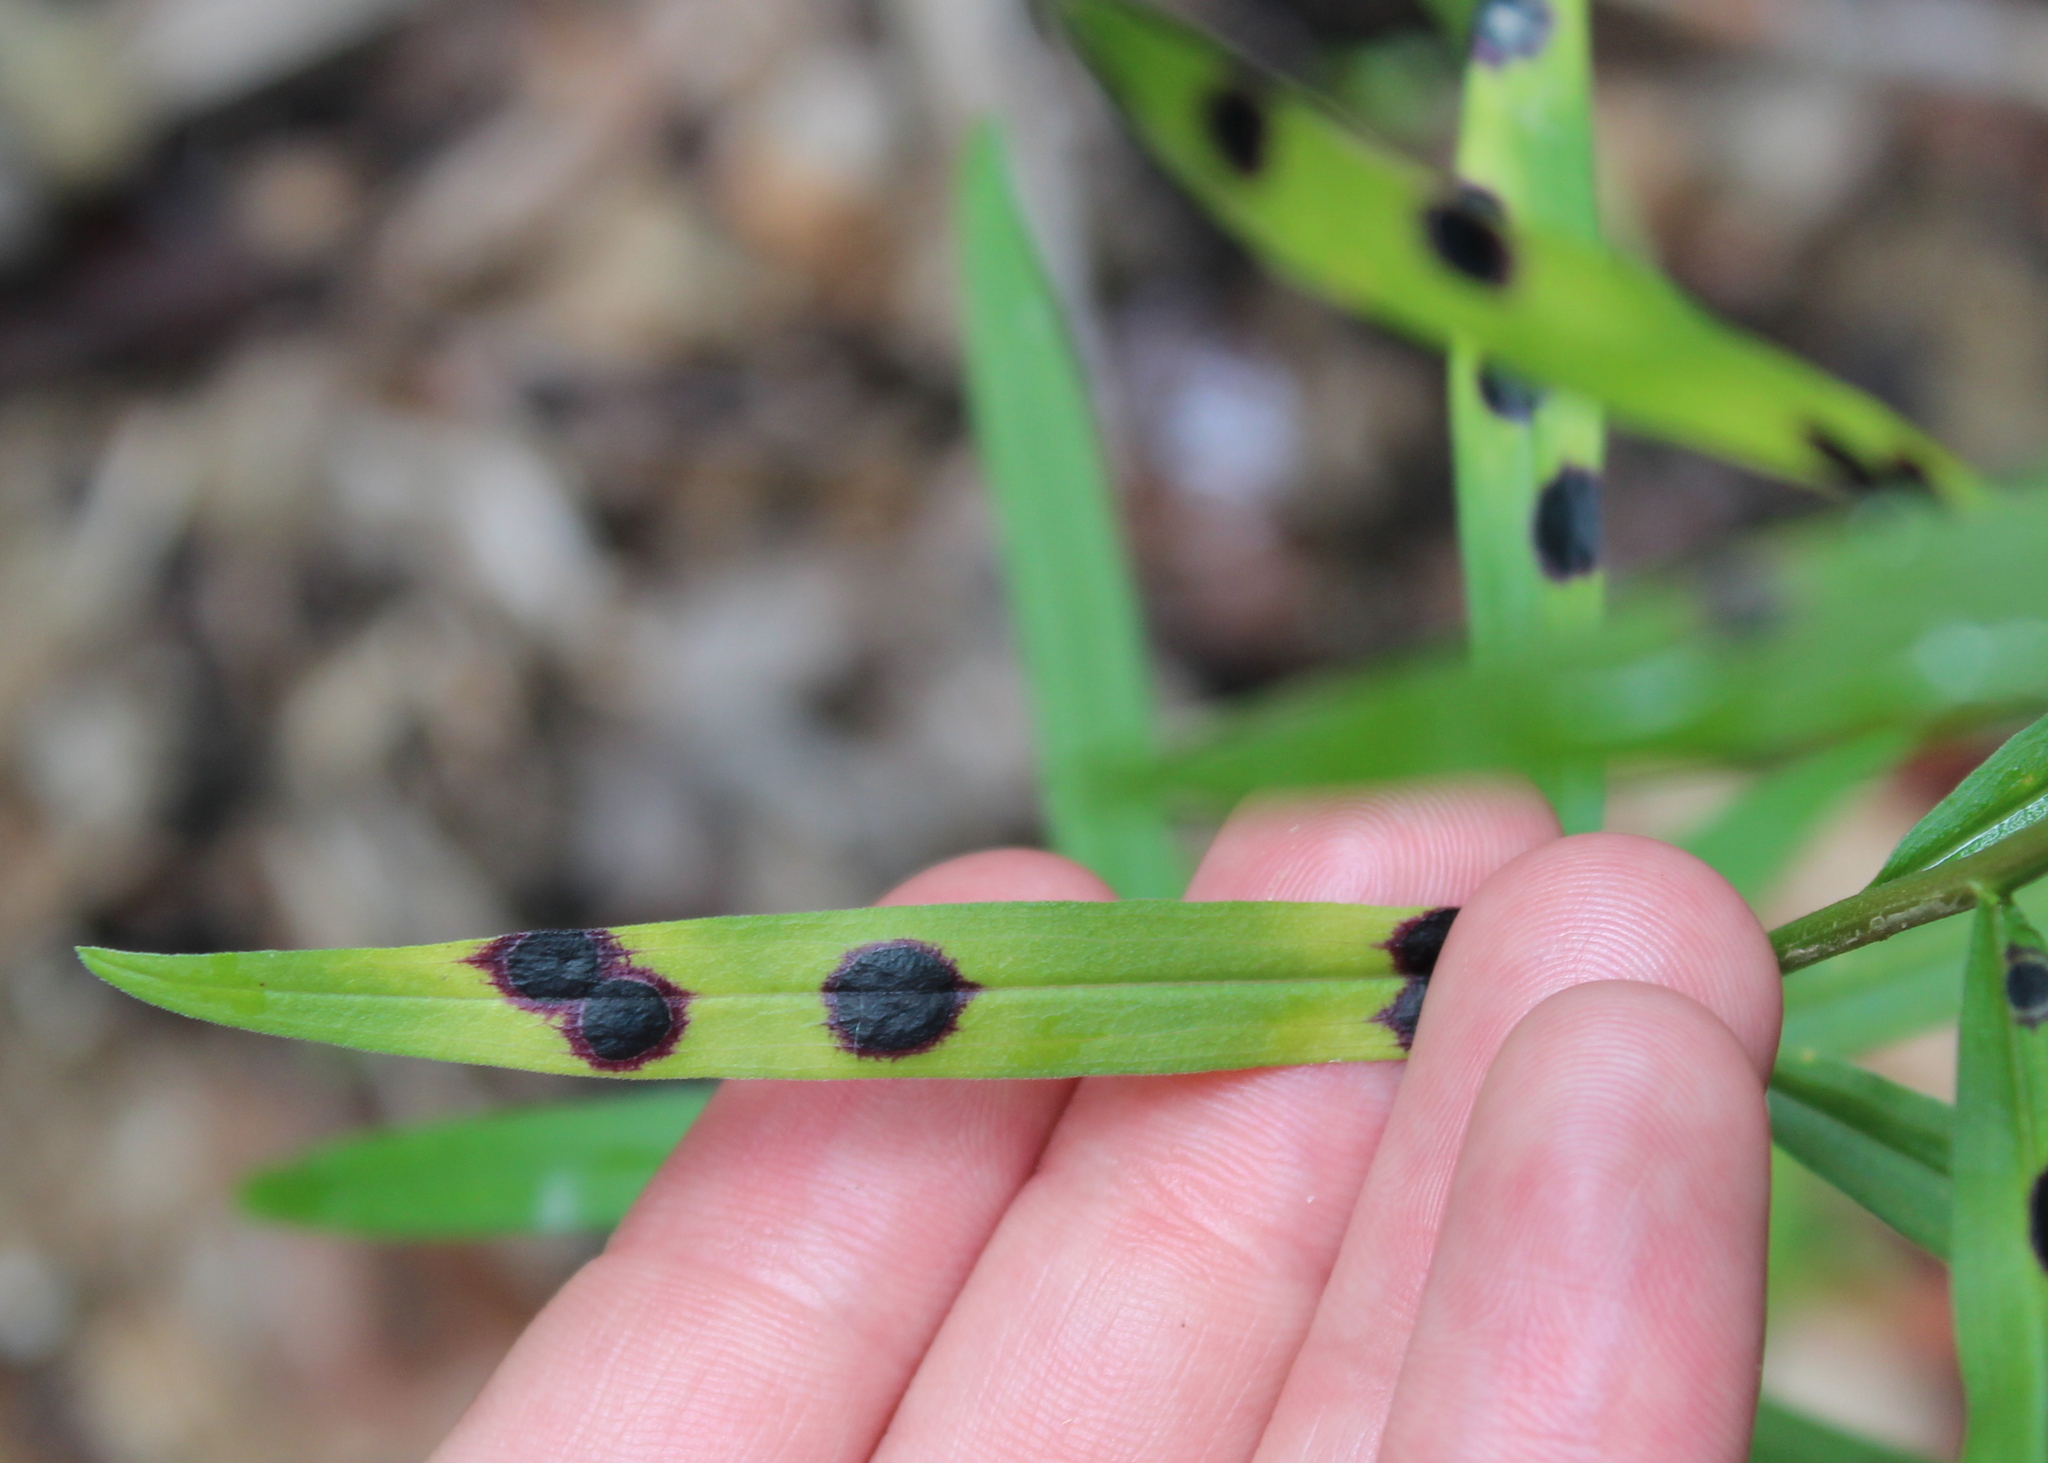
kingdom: Animalia
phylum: Arthropoda
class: Insecta
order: Diptera
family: Cecidomyiidae
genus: Asteromyia
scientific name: Asteromyia euthamiae
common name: Euthamia leaf gall midge
